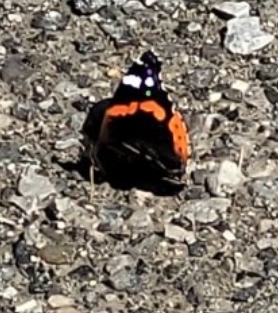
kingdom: Animalia
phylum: Arthropoda
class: Insecta
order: Lepidoptera
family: Nymphalidae
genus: Vanessa
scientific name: Vanessa atalanta
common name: Red admiral
